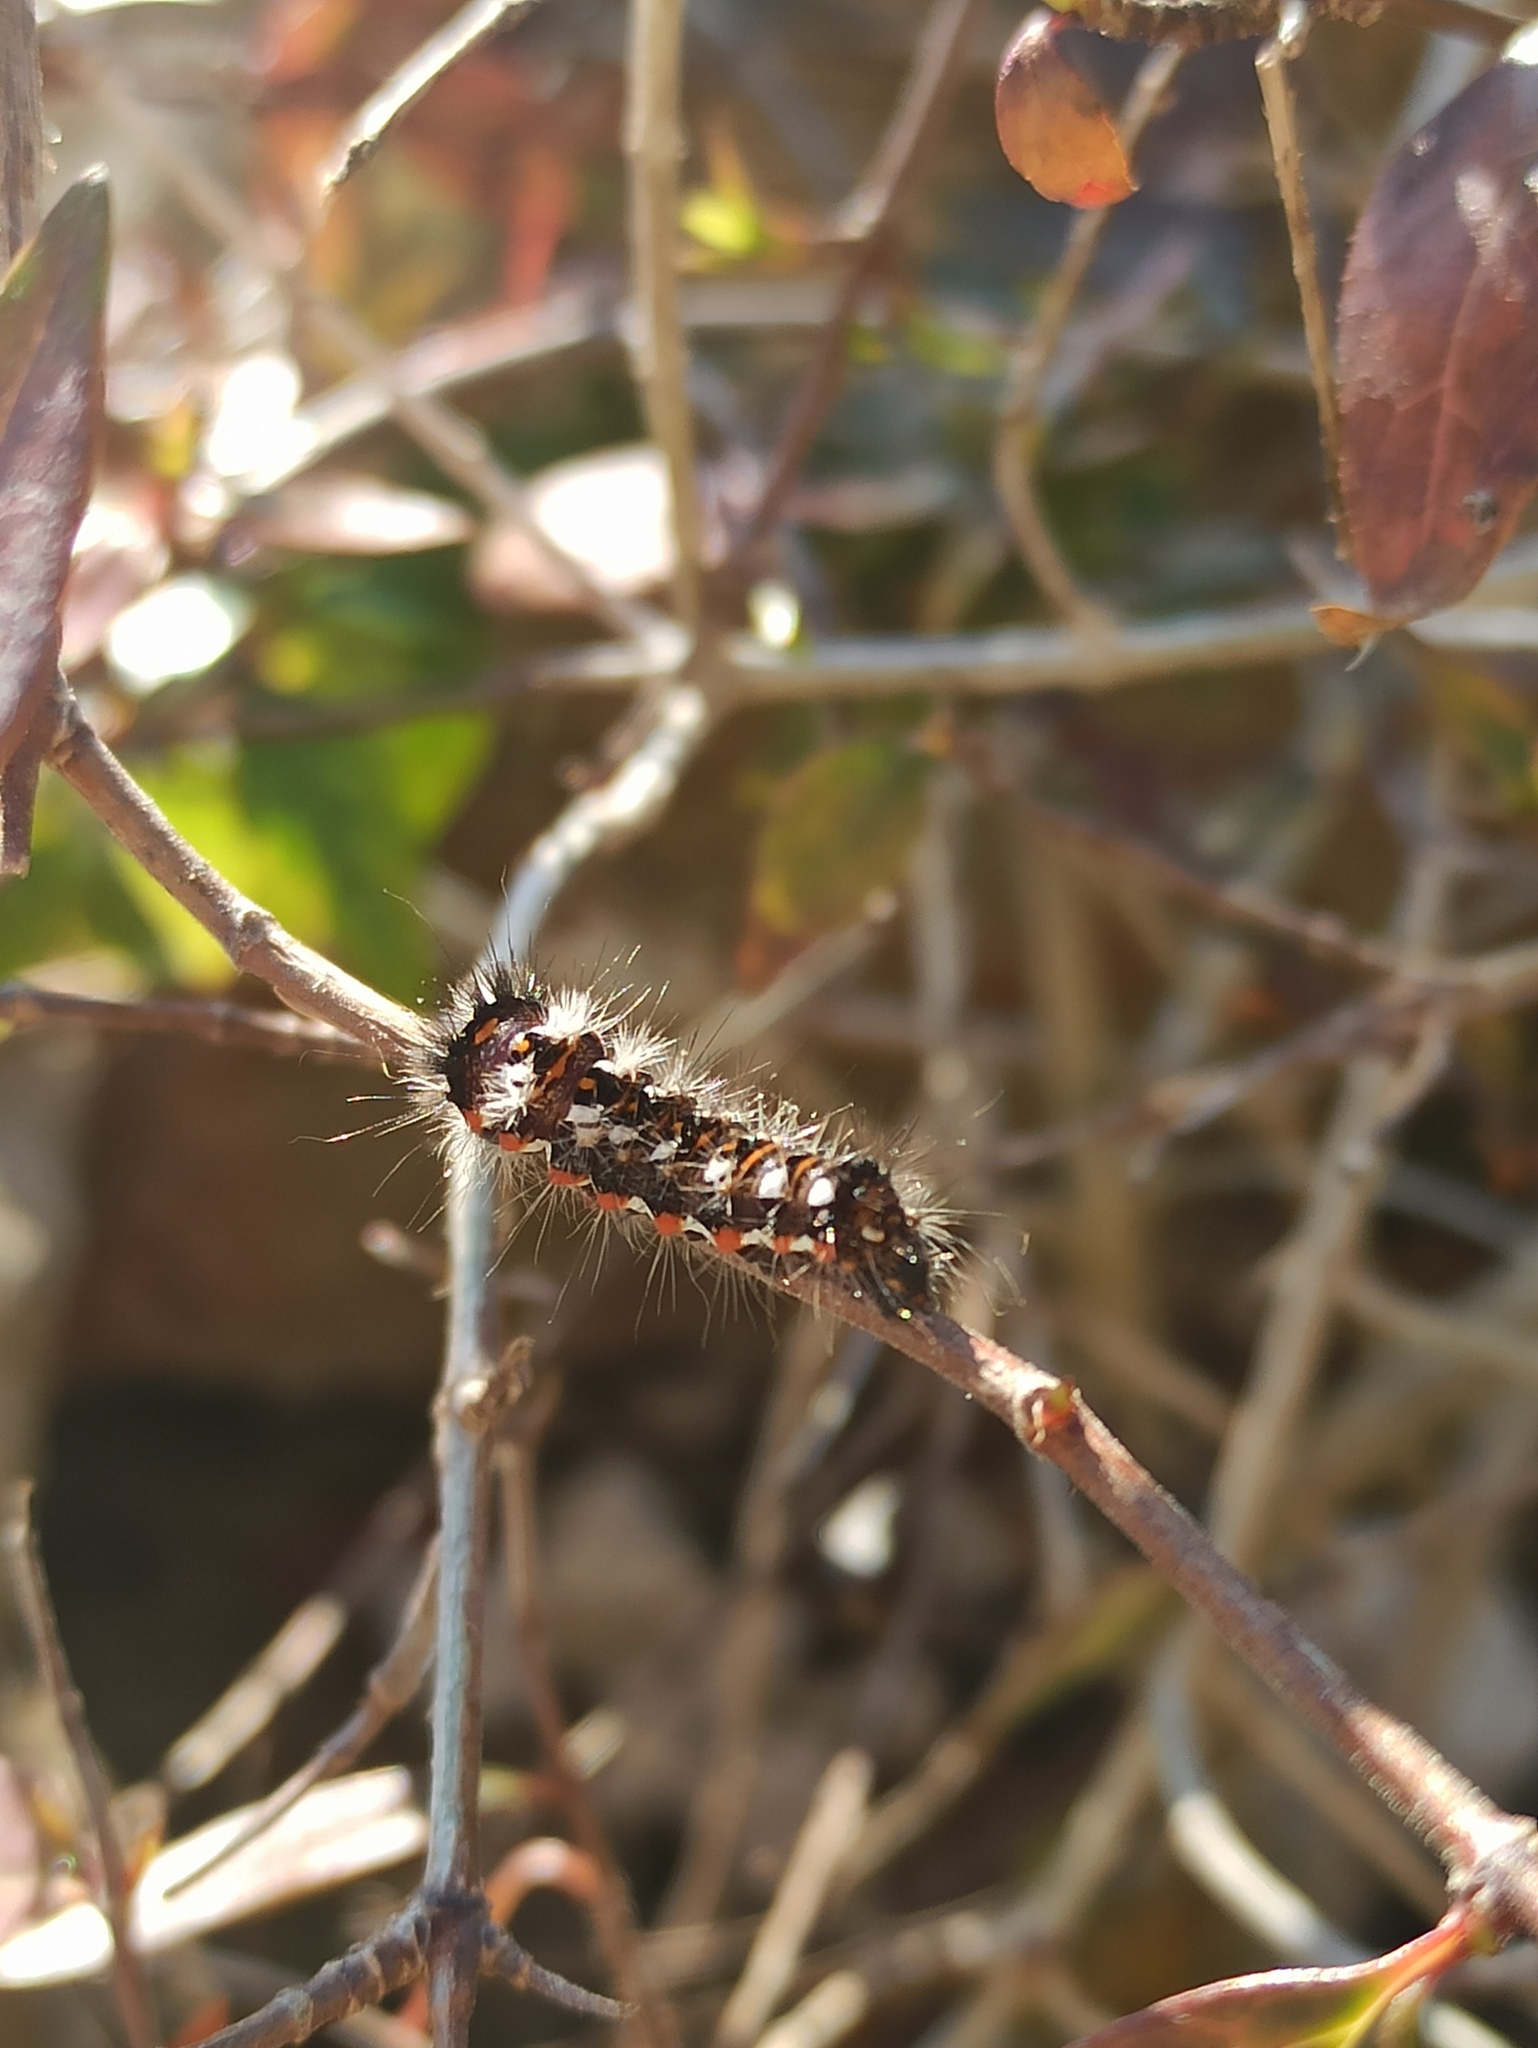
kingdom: Animalia
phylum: Arthropoda
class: Insecta
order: Lepidoptera
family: Noctuidae
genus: Acronicta
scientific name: Acronicta rumicis
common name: Knot grass
